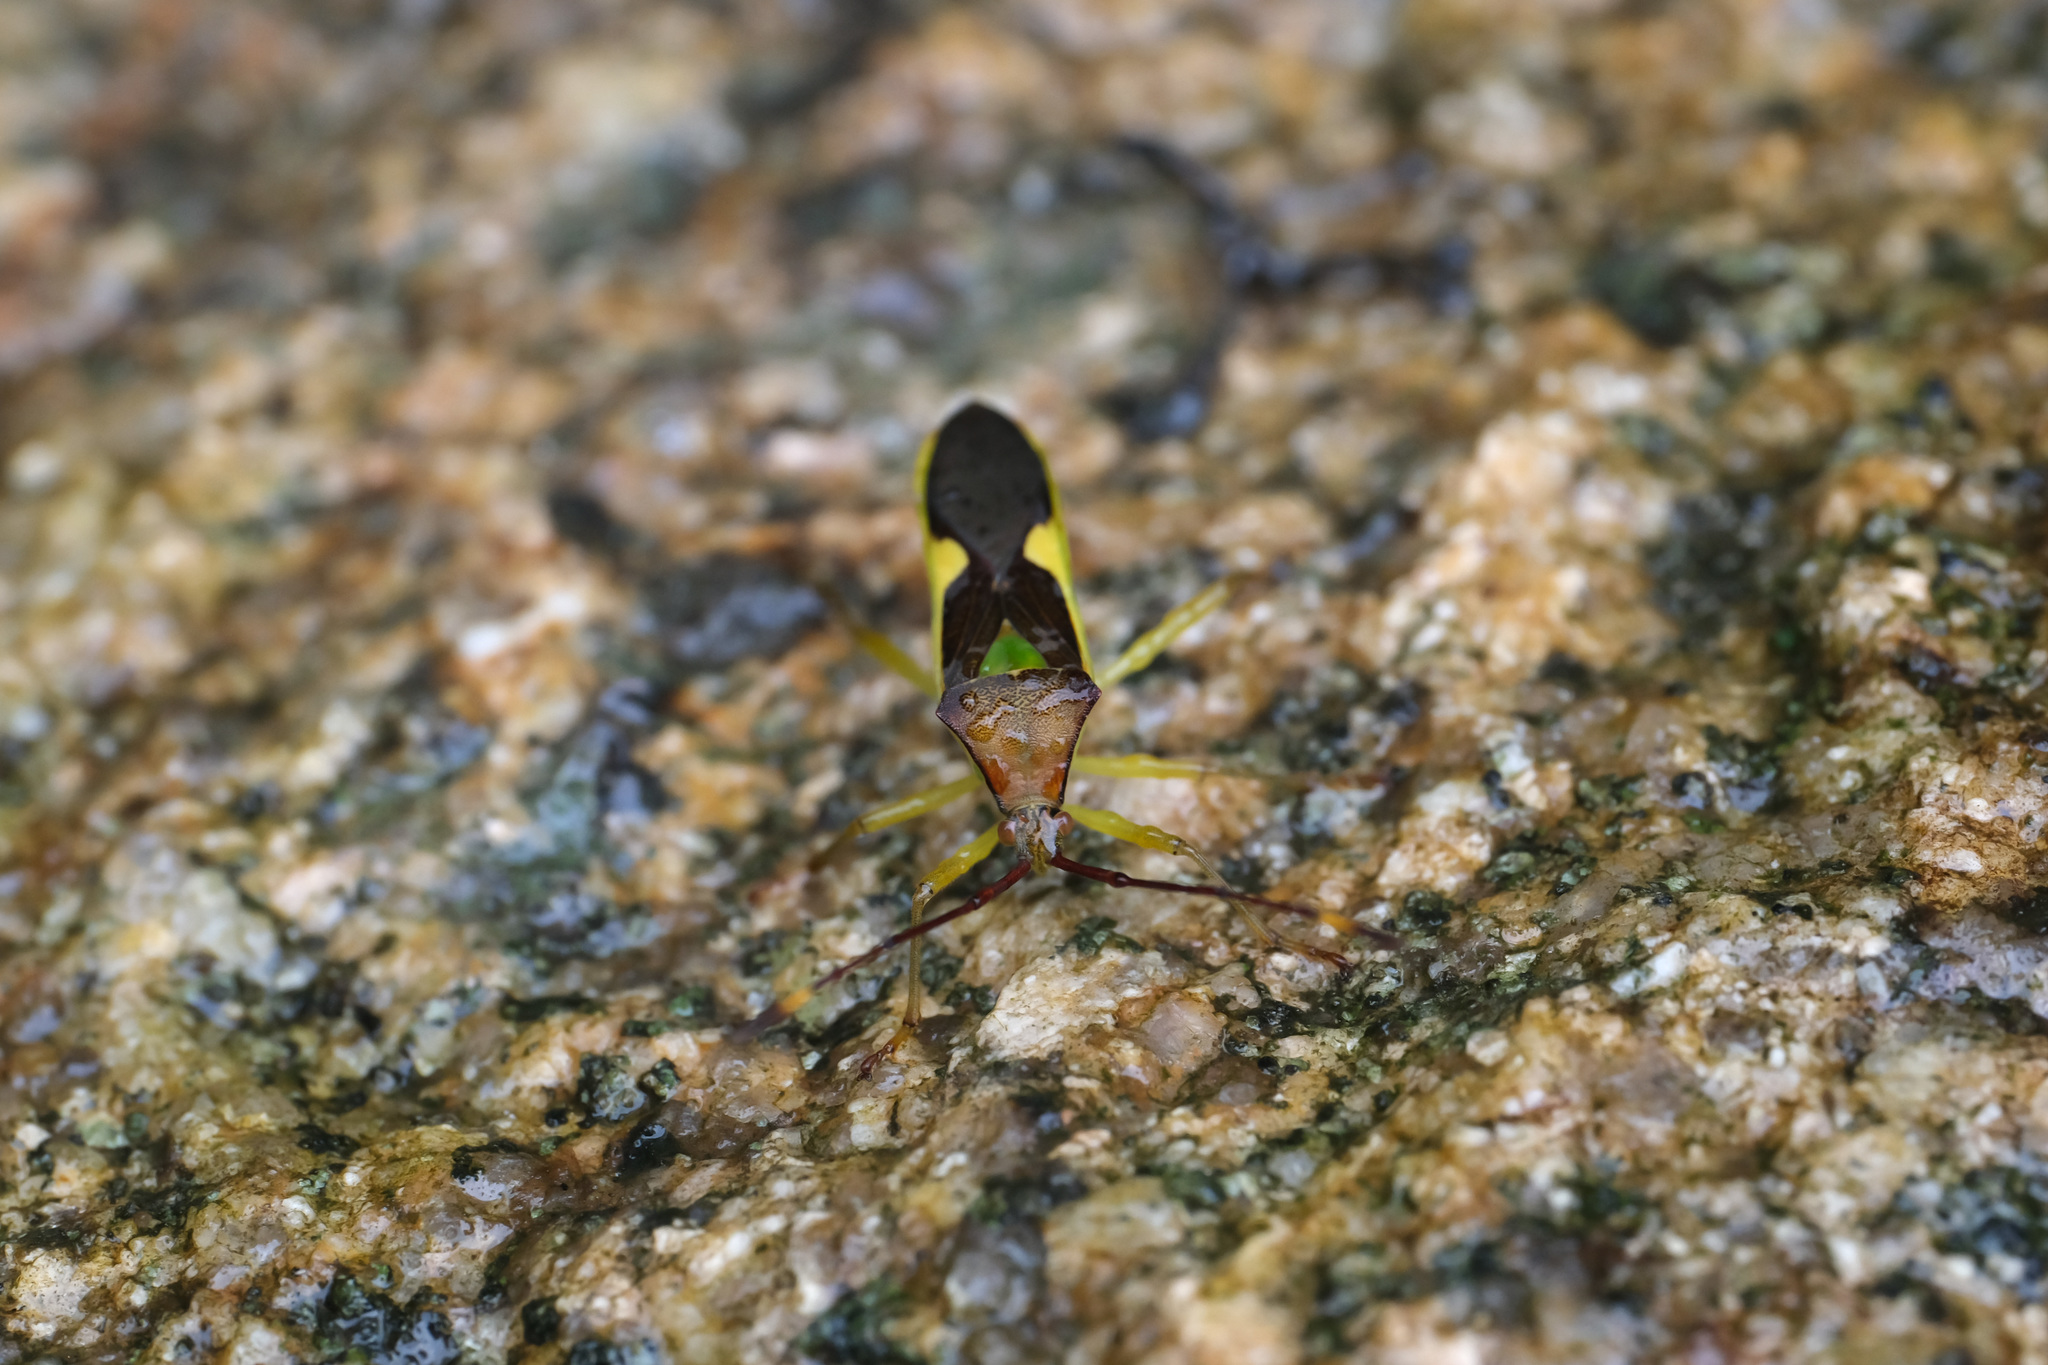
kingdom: Animalia
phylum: Arthropoda
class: Insecta
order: Hemiptera
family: Coreidae
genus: Homoeocerus
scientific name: Homoeocerus walkerianus
